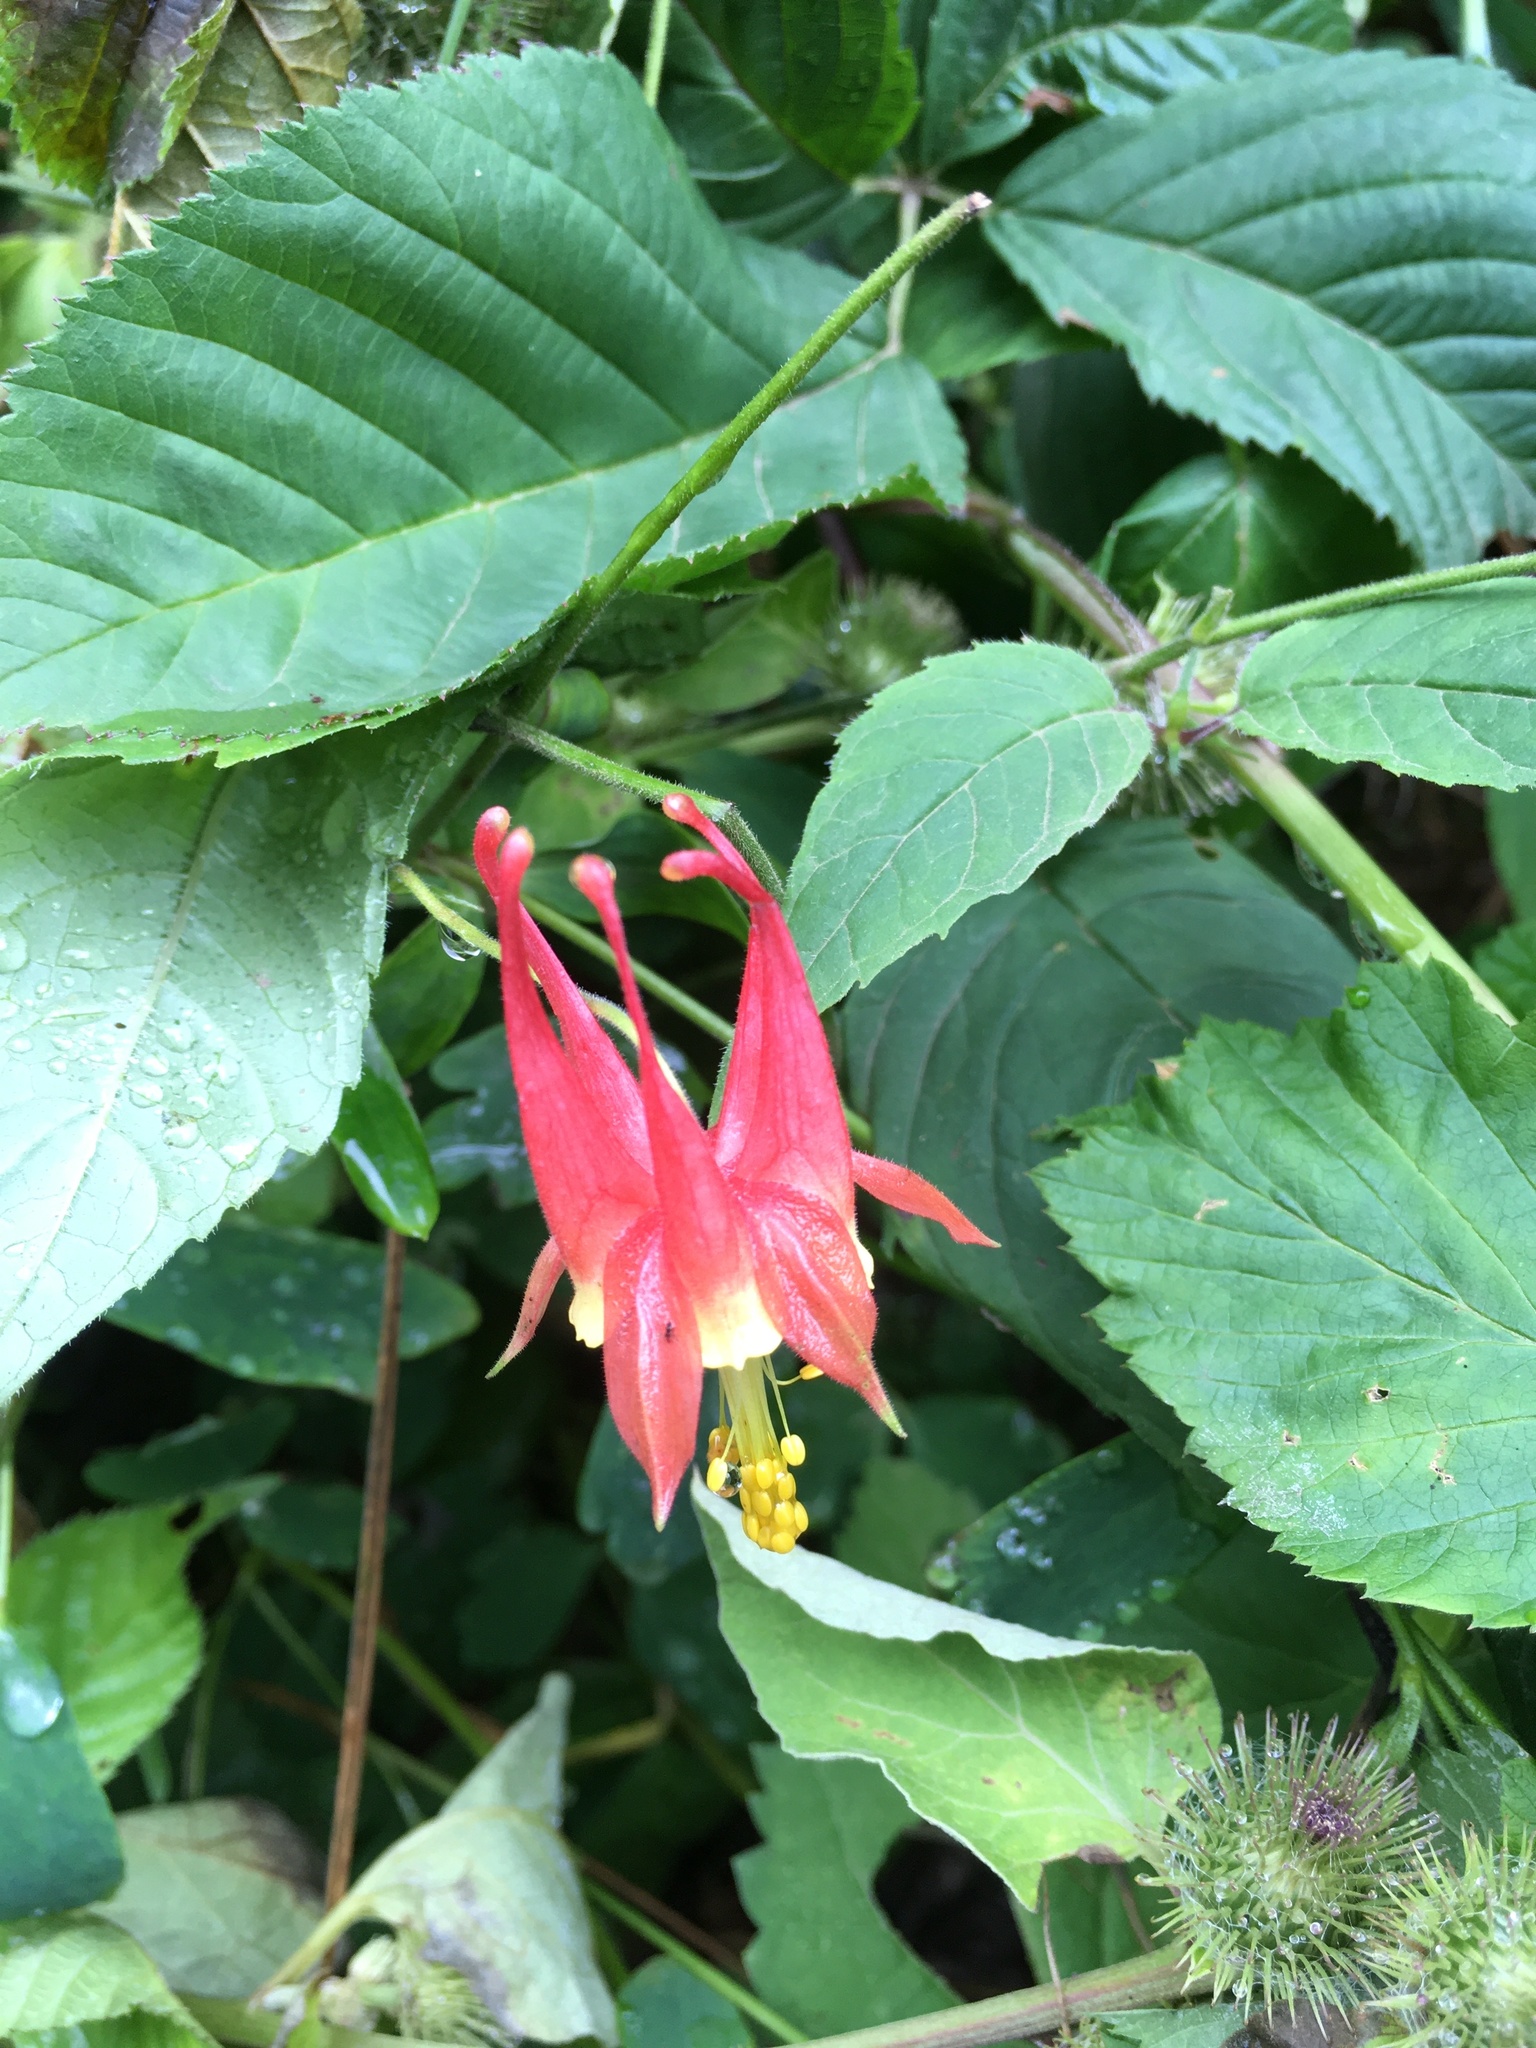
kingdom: Plantae
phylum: Tracheophyta
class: Magnoliopsida
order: Ranunculales
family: Ranunculaceae
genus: Aquilegia
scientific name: Aquilegia canadensis
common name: American columbine
